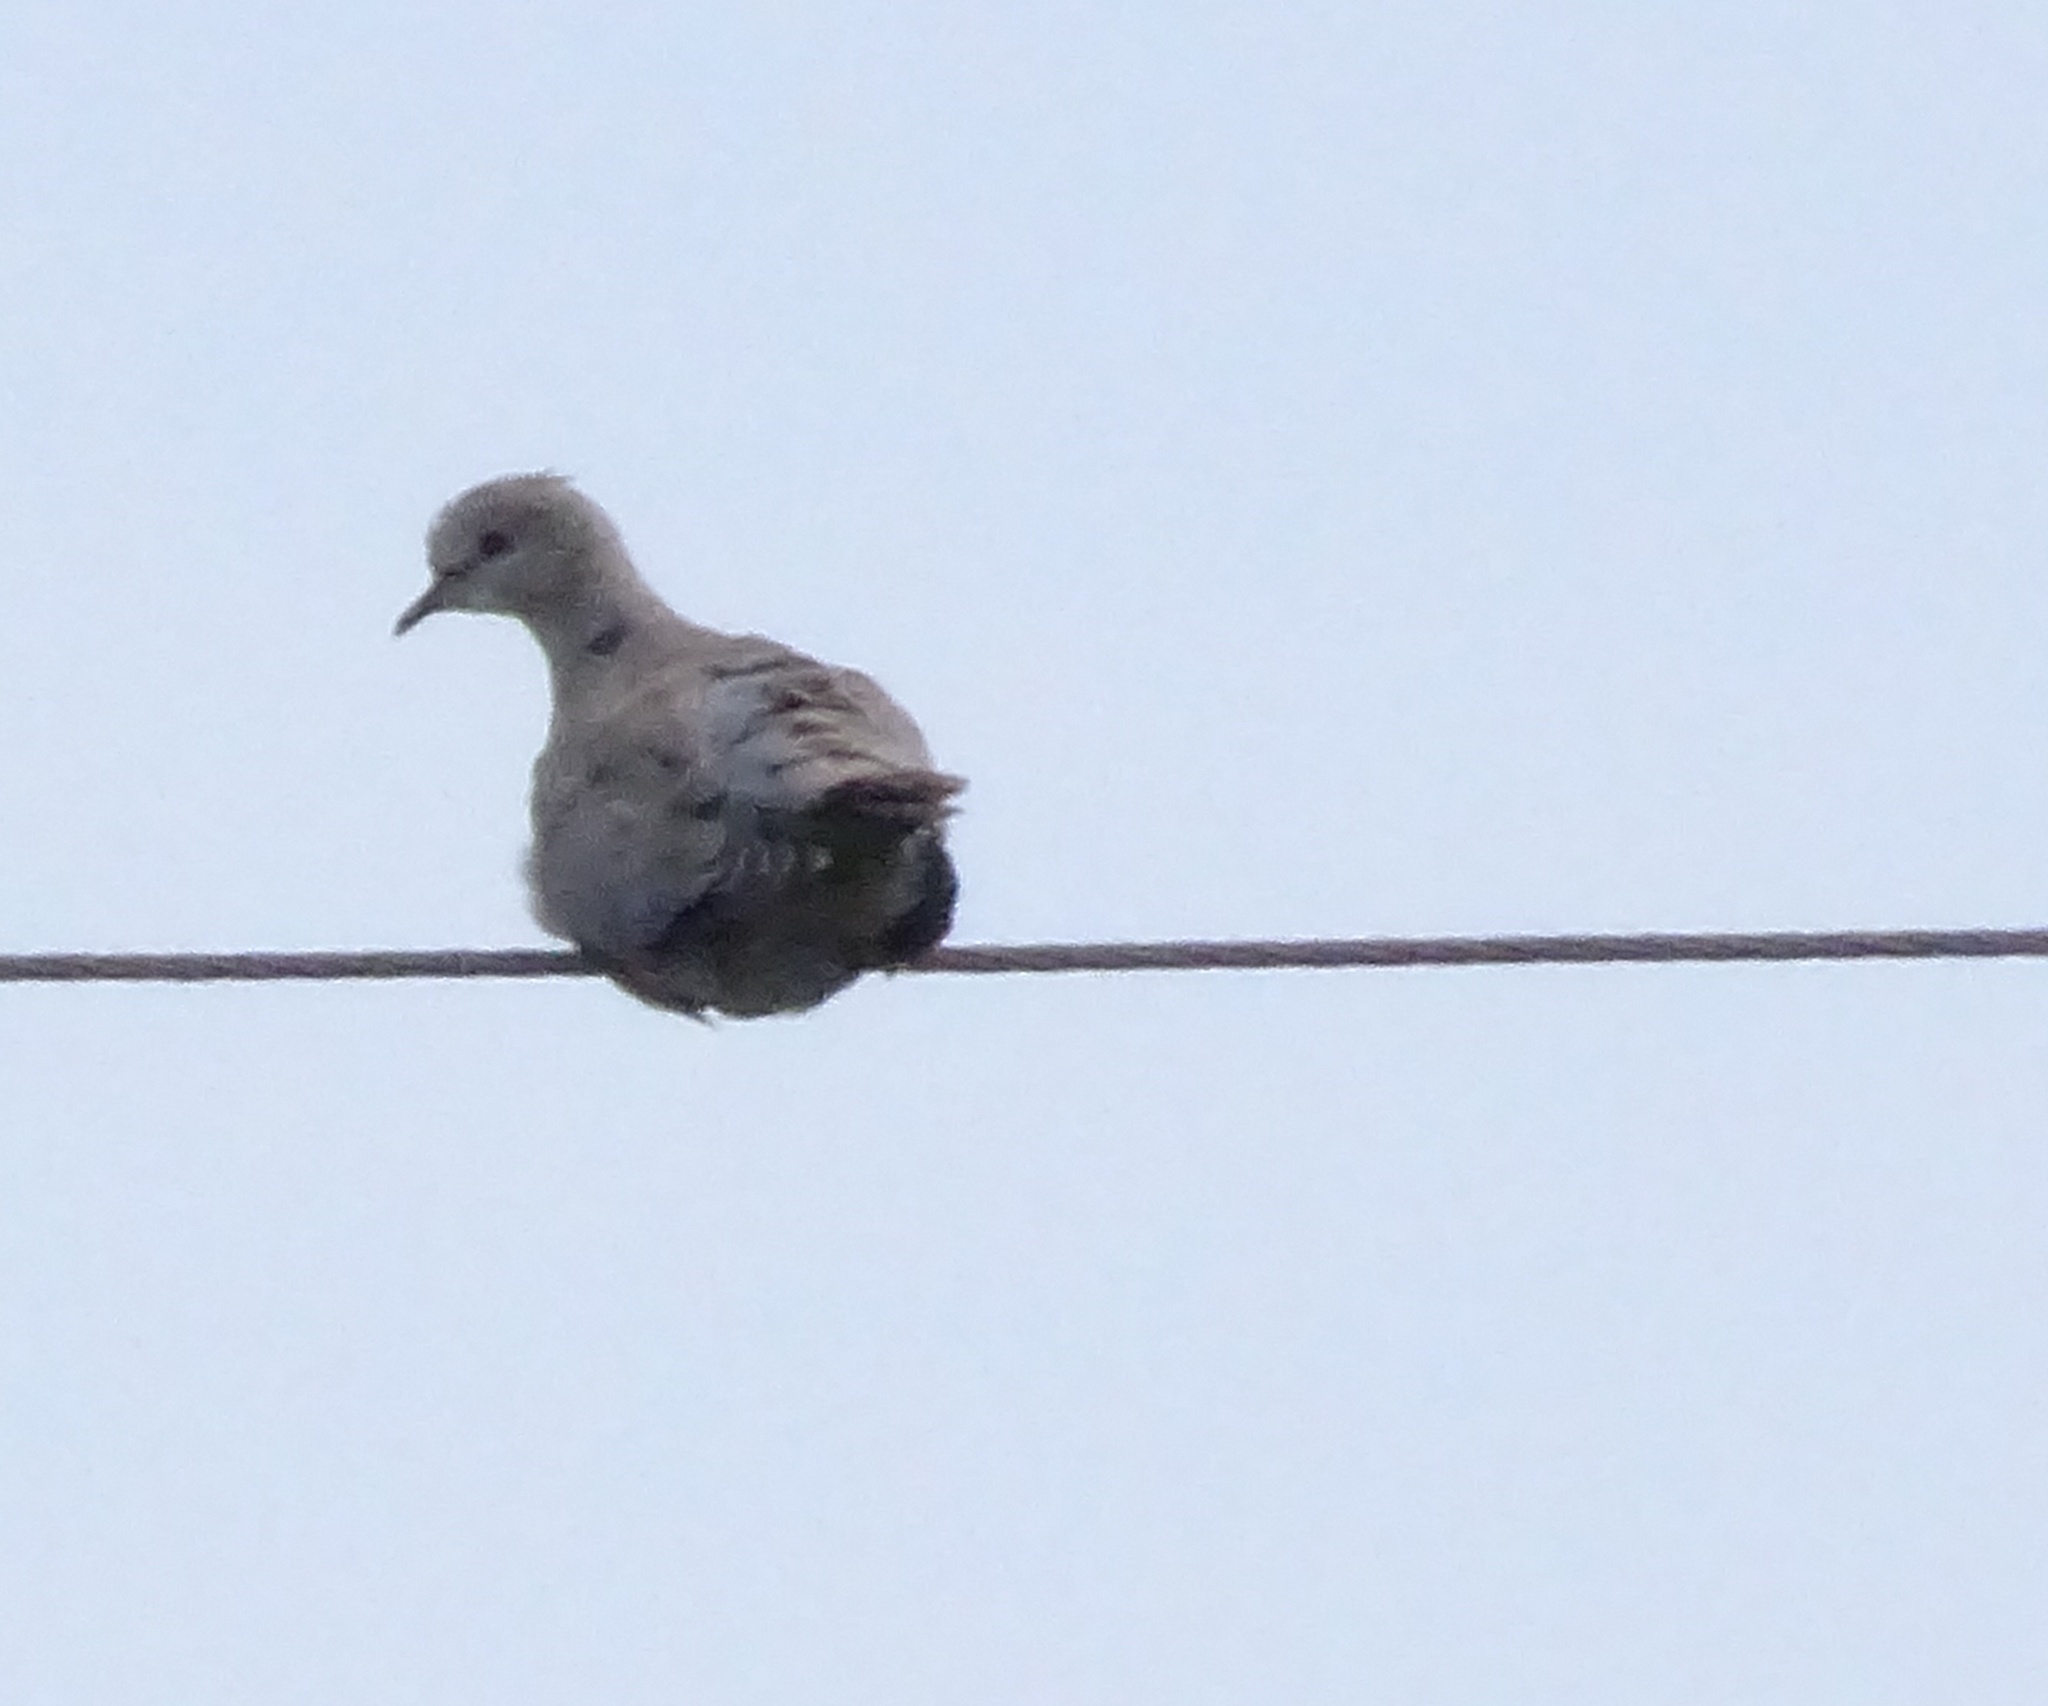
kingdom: Animalia
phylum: Chordata
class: Aves
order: Columbiformes
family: Columbidae
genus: Streptopelia
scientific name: Streptopelia decaocto
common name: Eurasian collared dove
